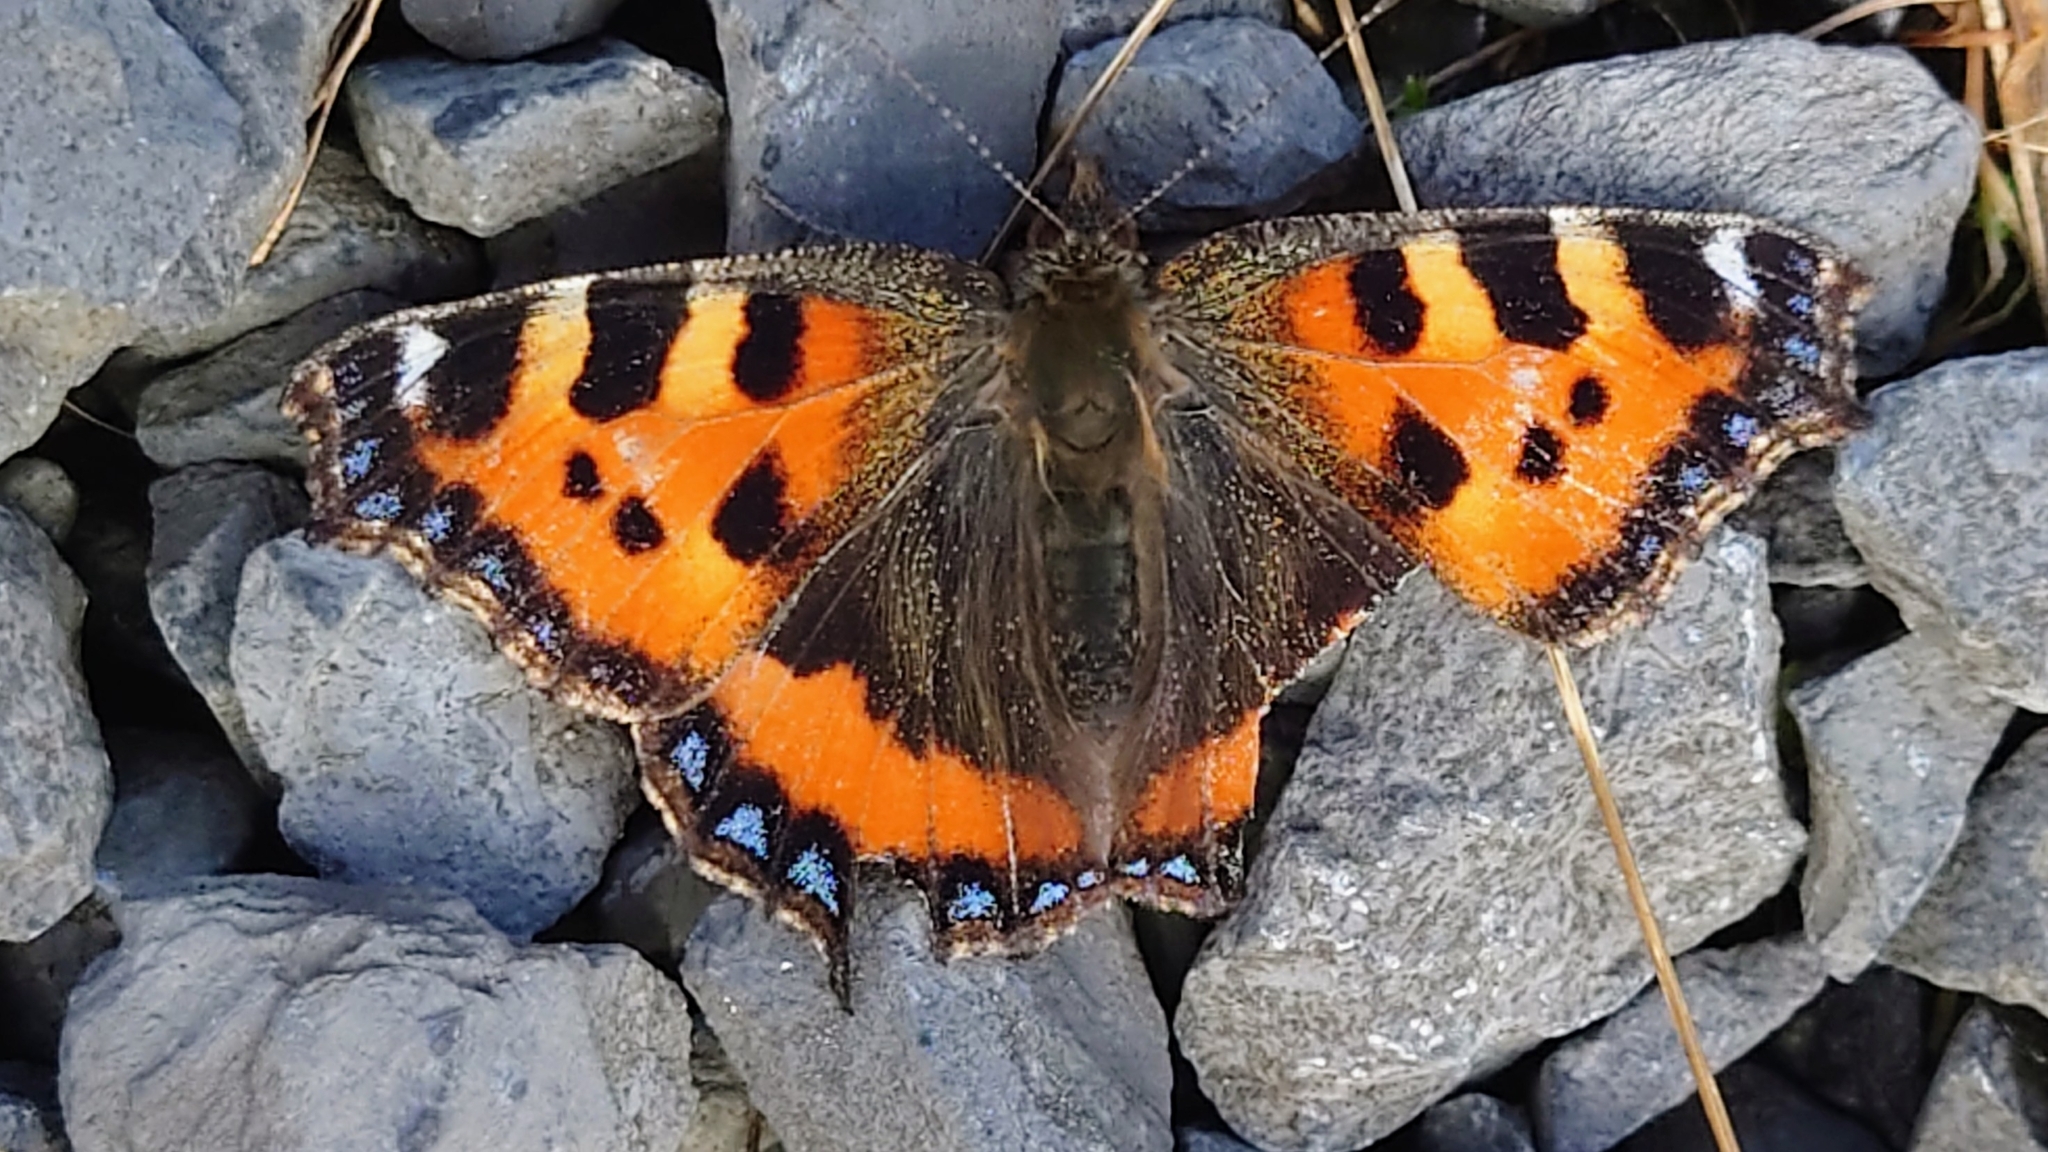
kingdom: Animalia
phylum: Arthropoda
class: Insecta
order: Lepidoptera
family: Nymphalidae
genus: Aglais
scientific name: Aglais urticae
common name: Small tortoiseshell
